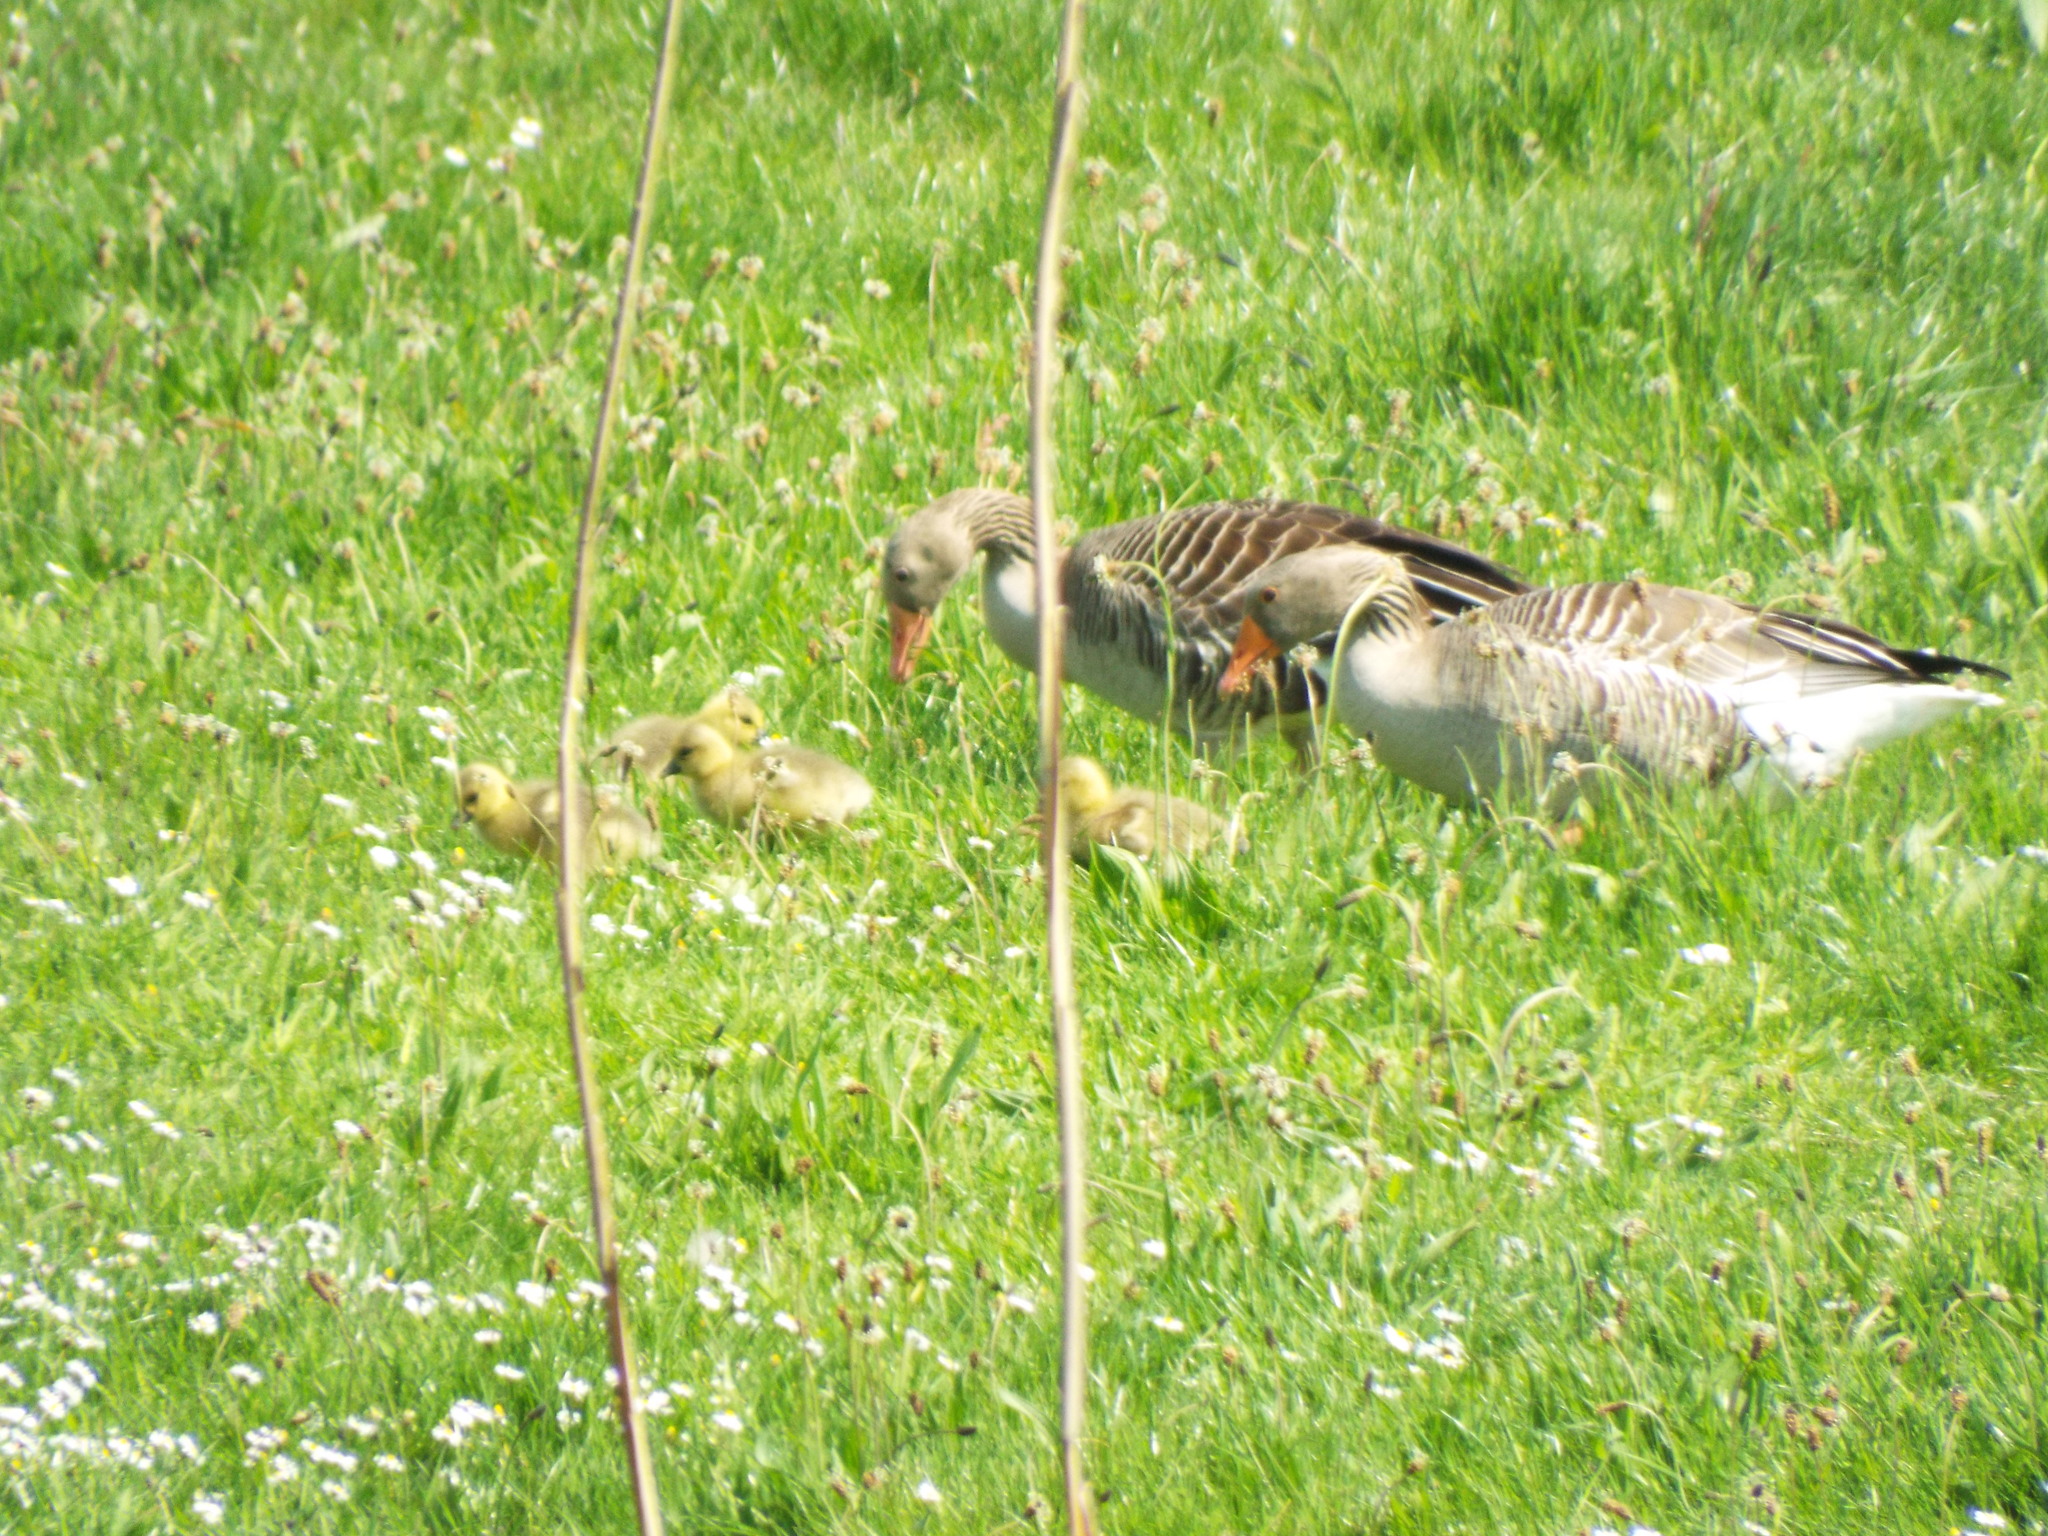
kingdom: Animalia
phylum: Chordata
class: Aves
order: Anseriformes
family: Anatidae
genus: Anser
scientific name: Anser anser
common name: Greylag goose
